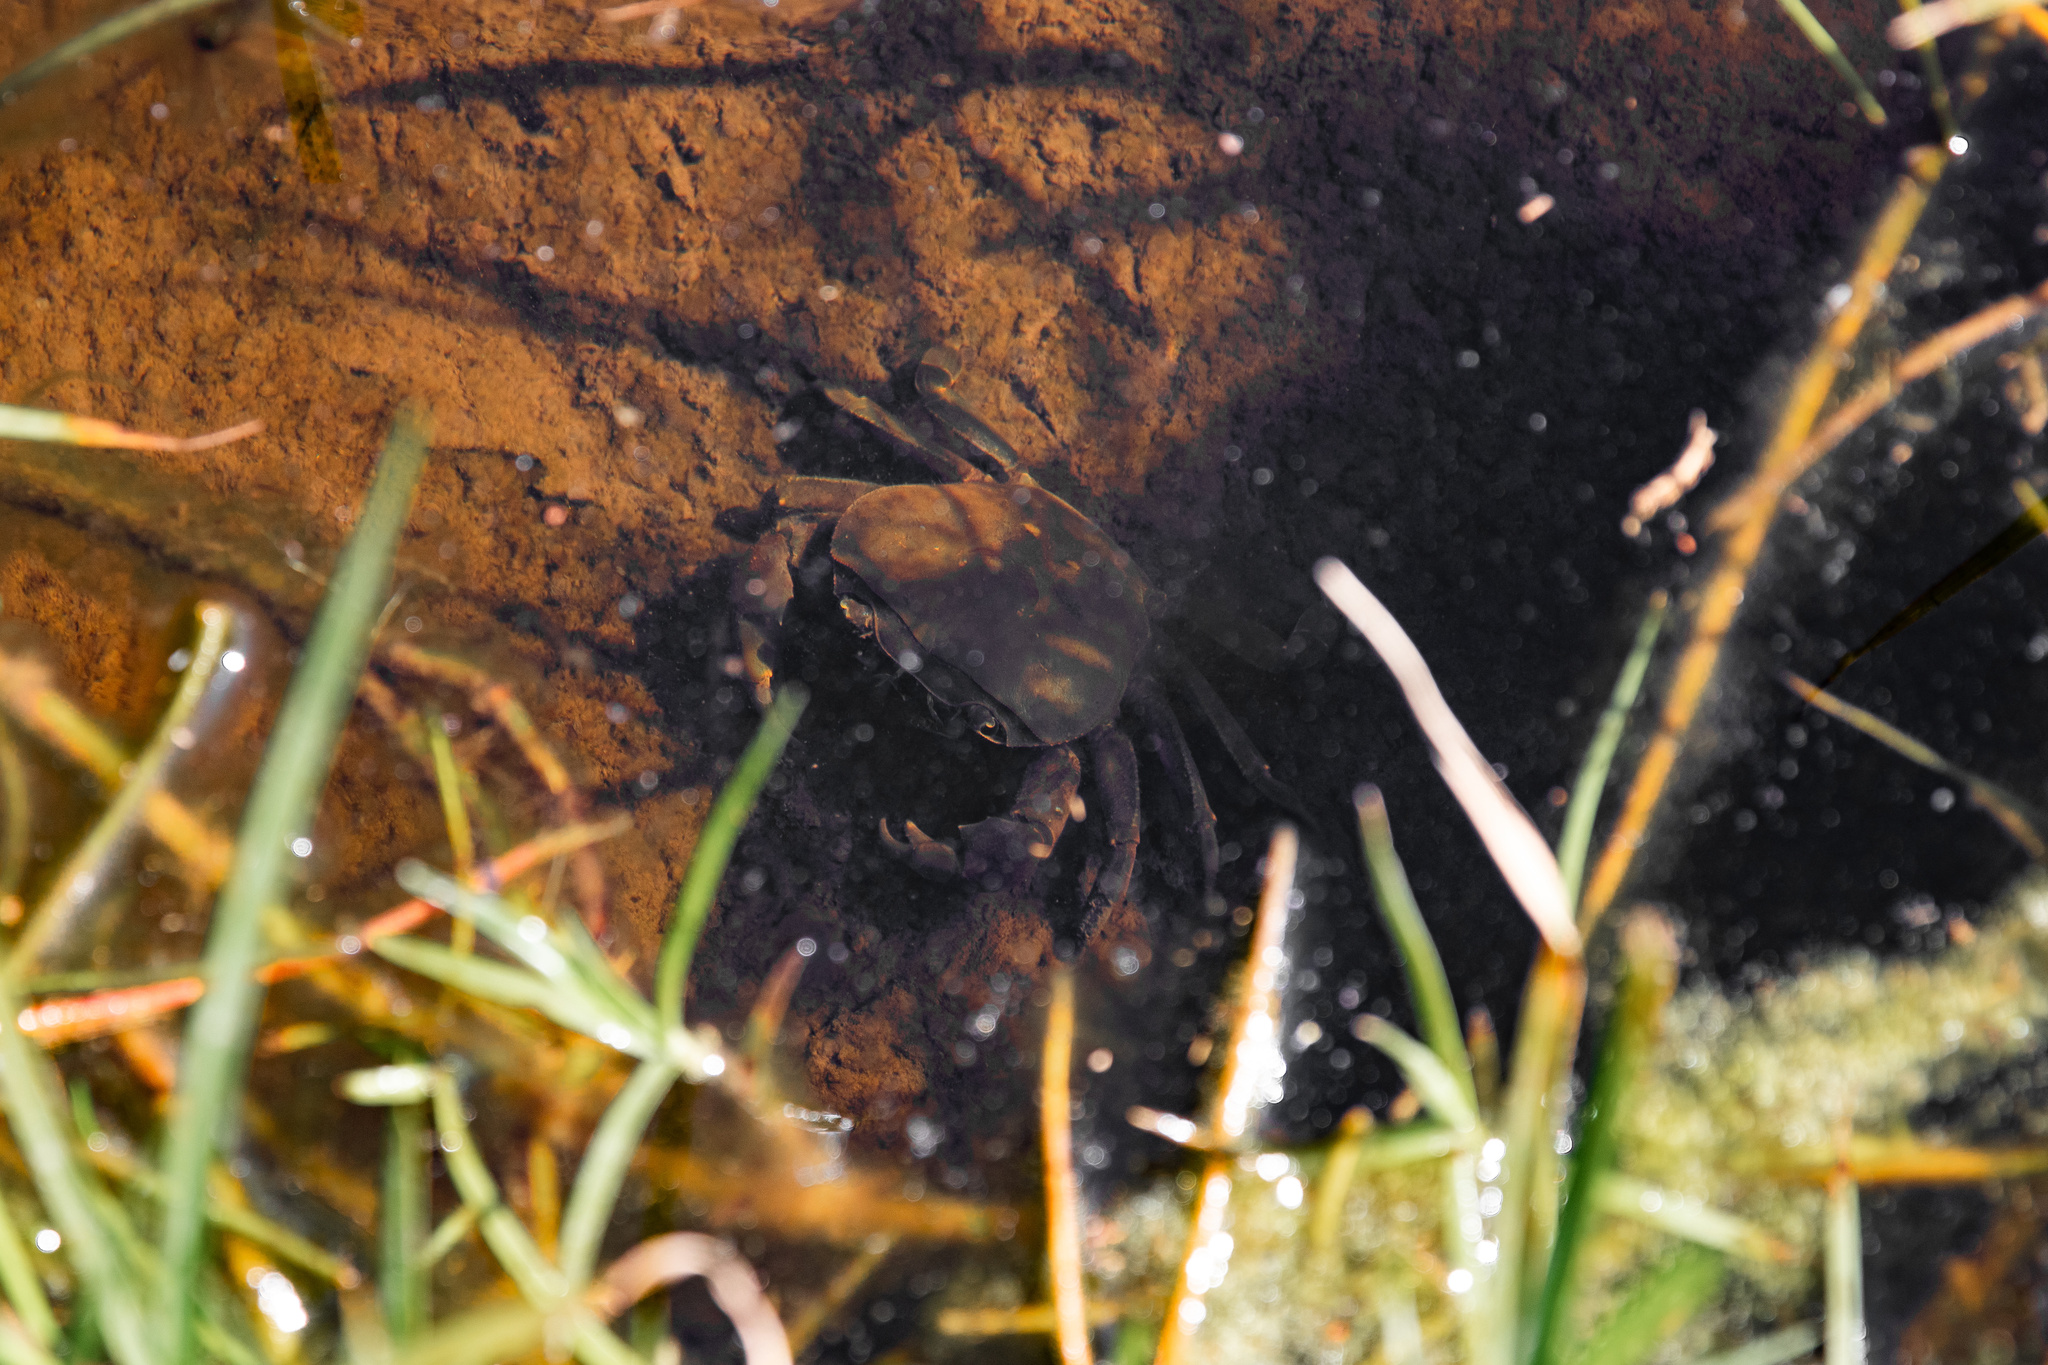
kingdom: Animalia
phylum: Arthropoda
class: Malacostraca
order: Decapoda
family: Potamonautidae
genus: Potamonautes
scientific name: Potamonautes perlatus
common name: Cape river crab
